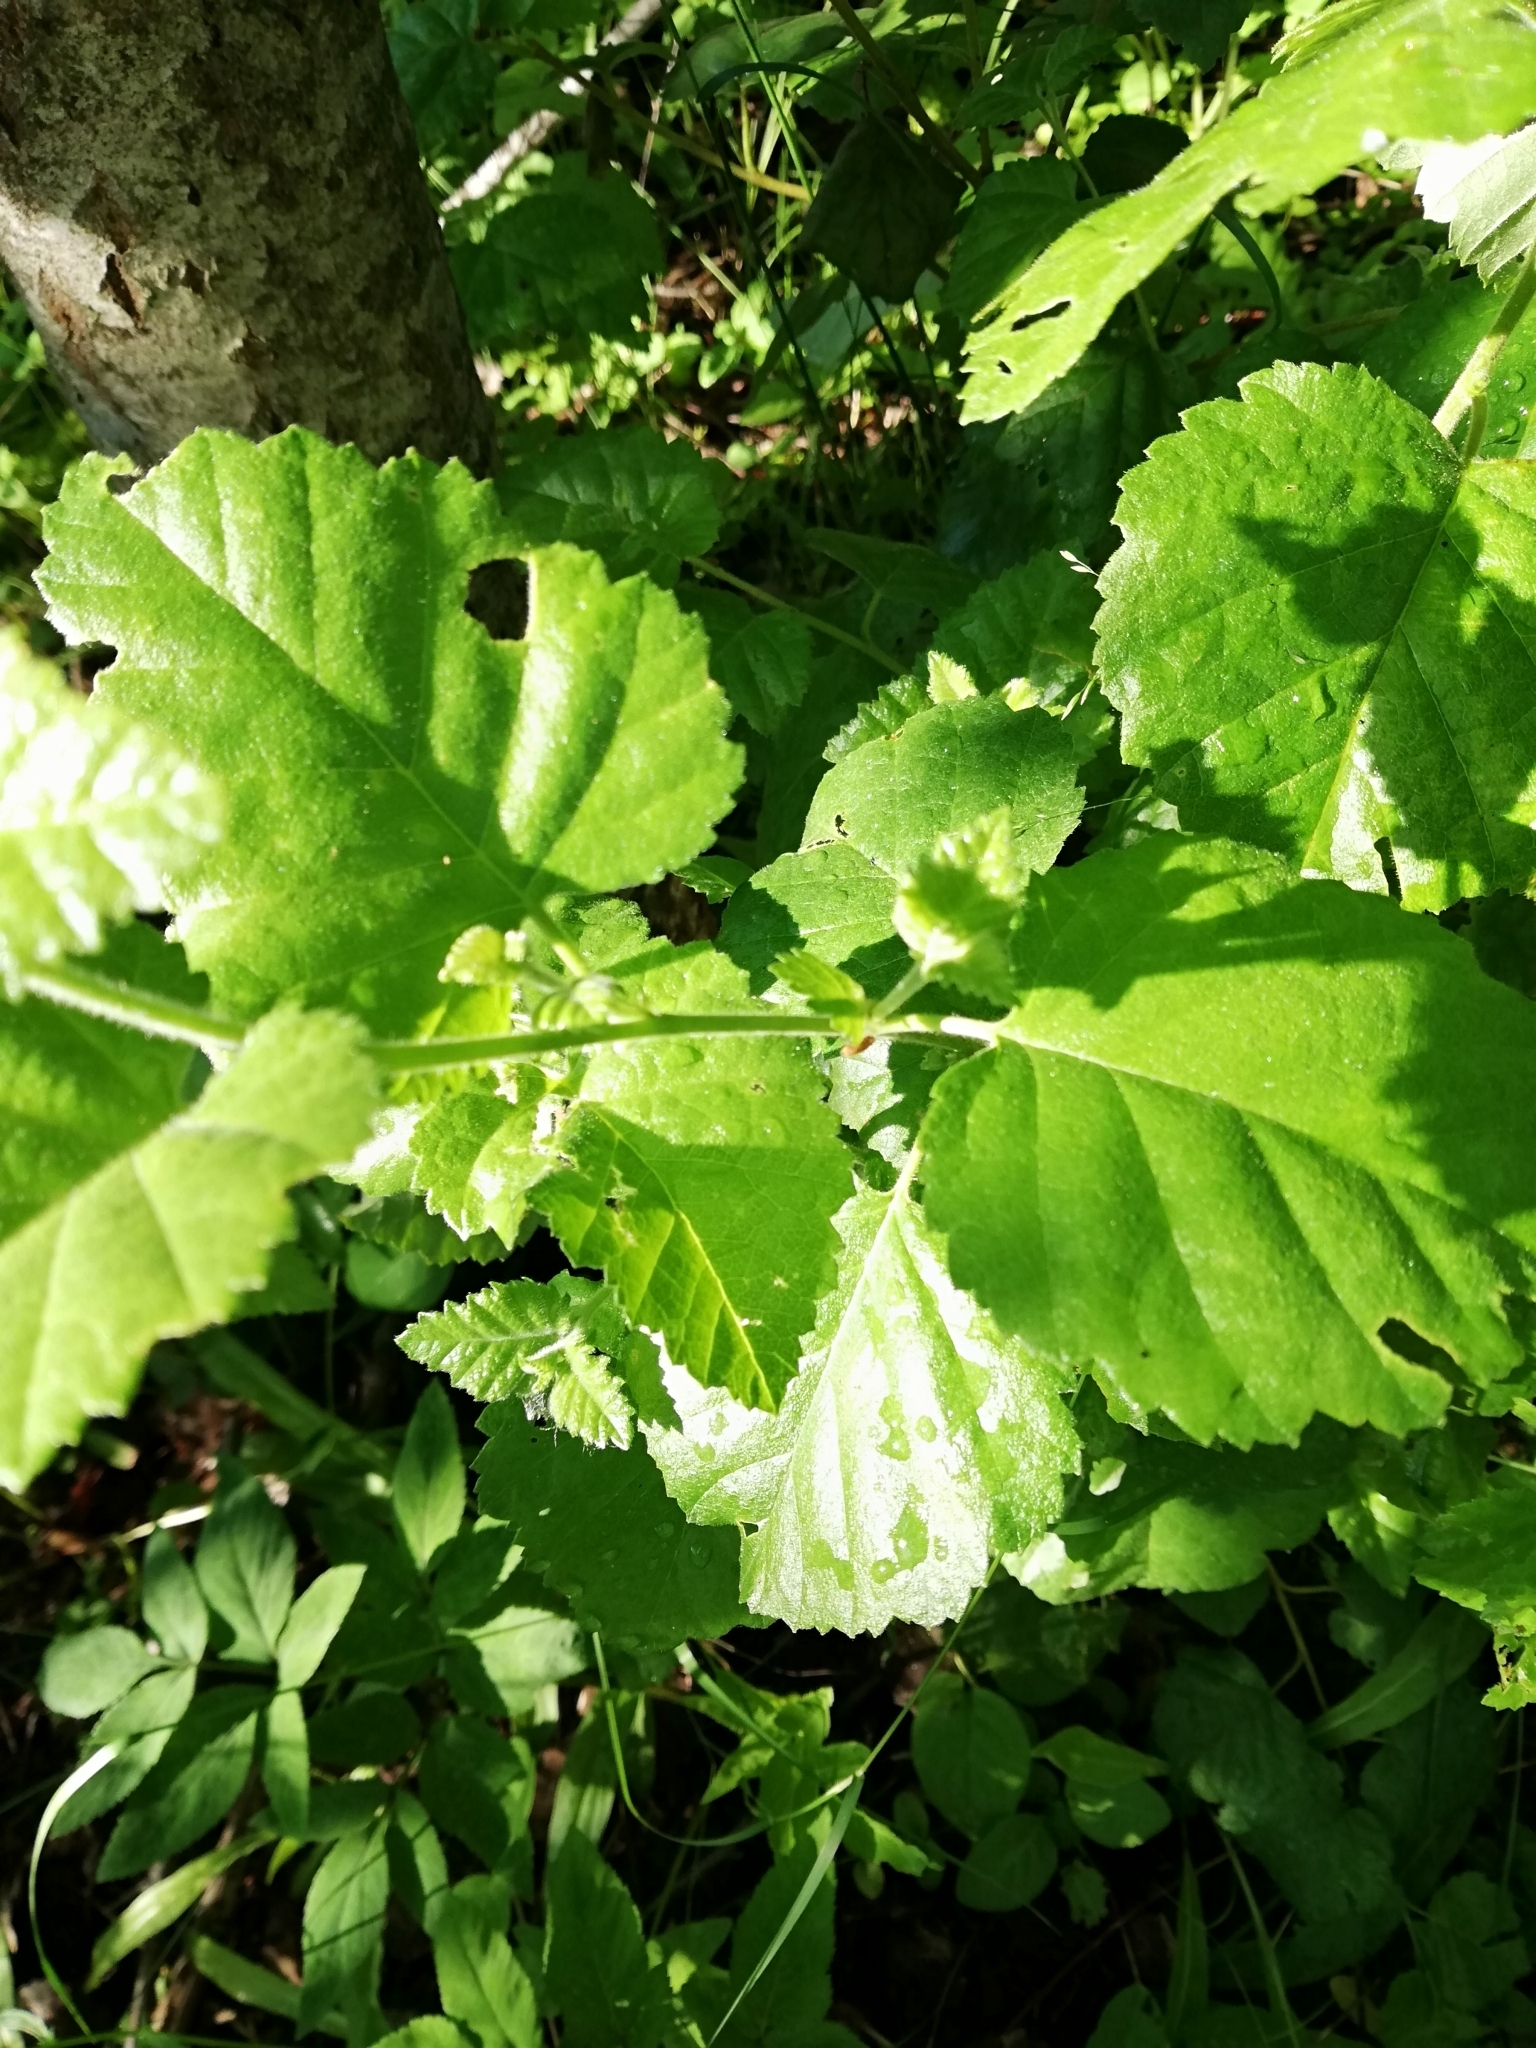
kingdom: Plantae
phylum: Tracheophyta
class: Magnoliopsida
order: Fagales
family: Betulaceae
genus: Betula
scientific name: Betula pubescens
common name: Downy birch
